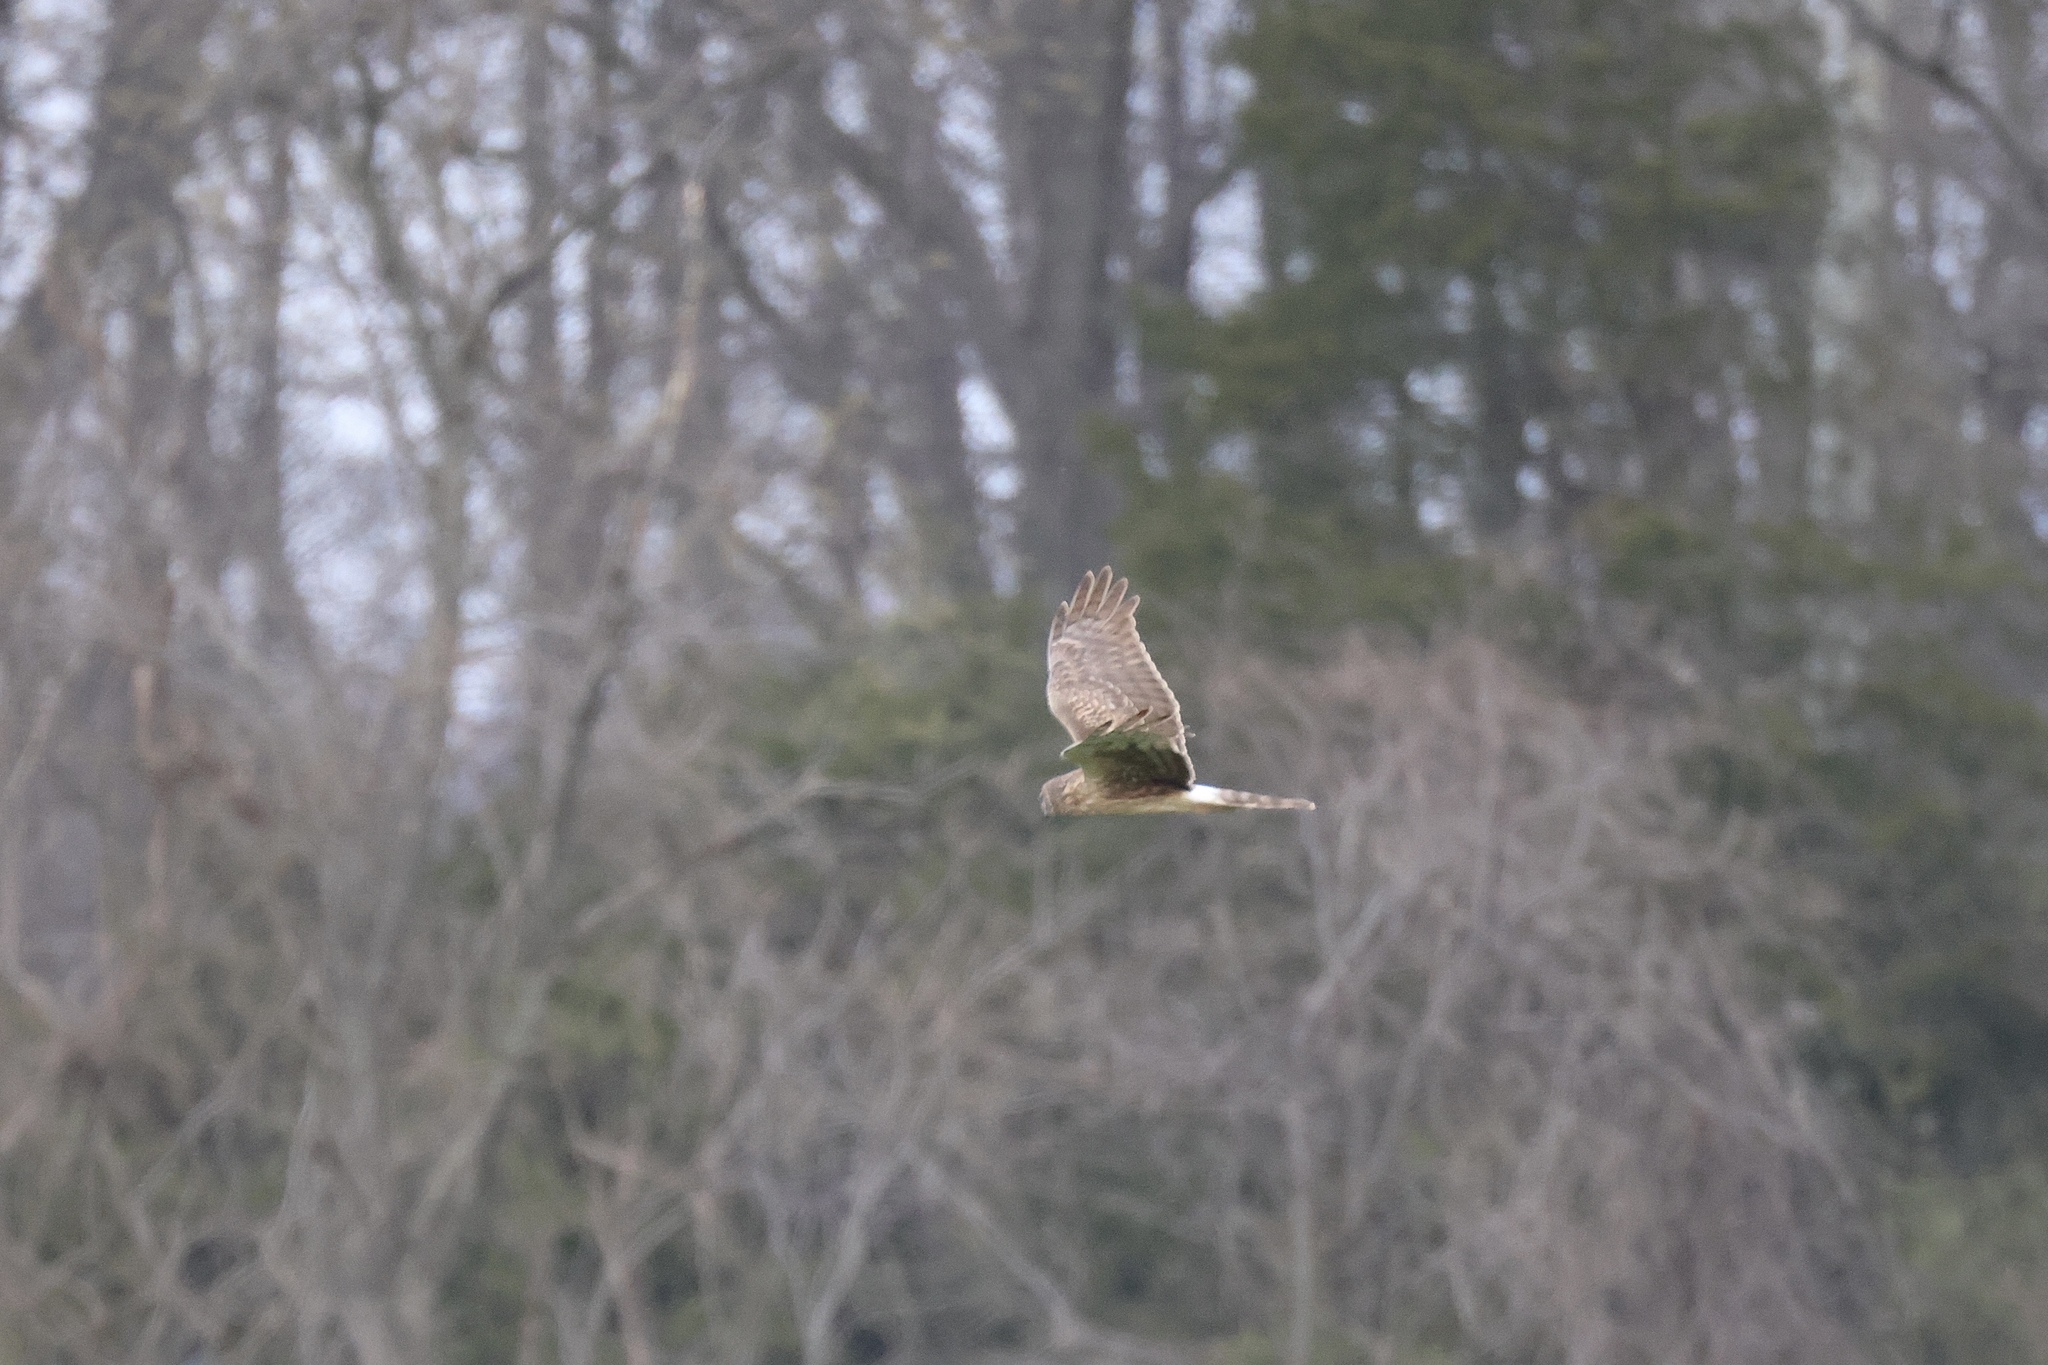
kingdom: Animalia
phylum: Chordata
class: Aves
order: Accipitriformes
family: Accipitridae
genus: Circus
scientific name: Circus cyaneus
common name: Hen harrier
